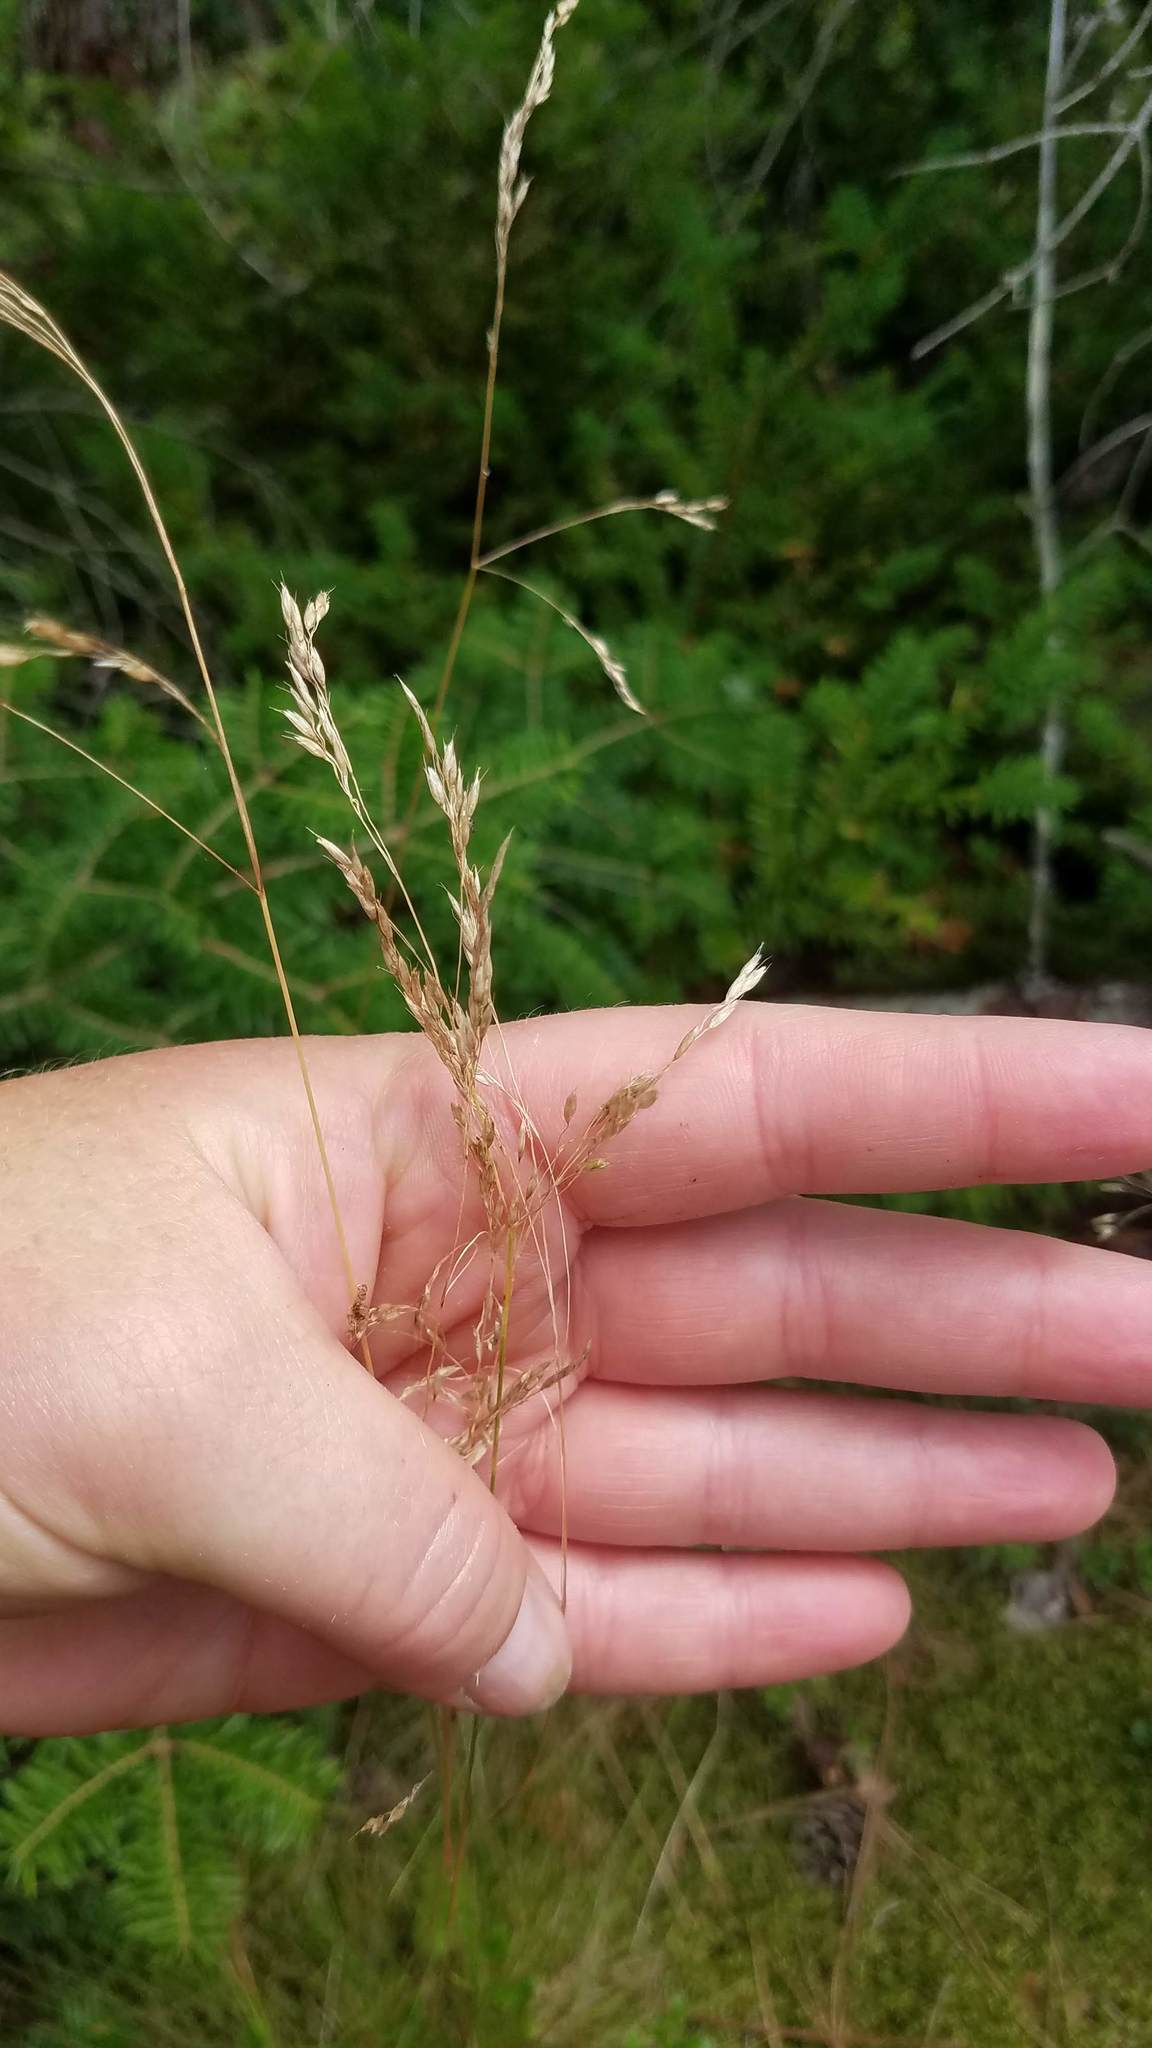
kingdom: Plantae
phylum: Tracheophyta
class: Liliopsida
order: Poales
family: Poaceae
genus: Avenella
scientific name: Avenella flexuosa
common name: Wavy hairgrass
